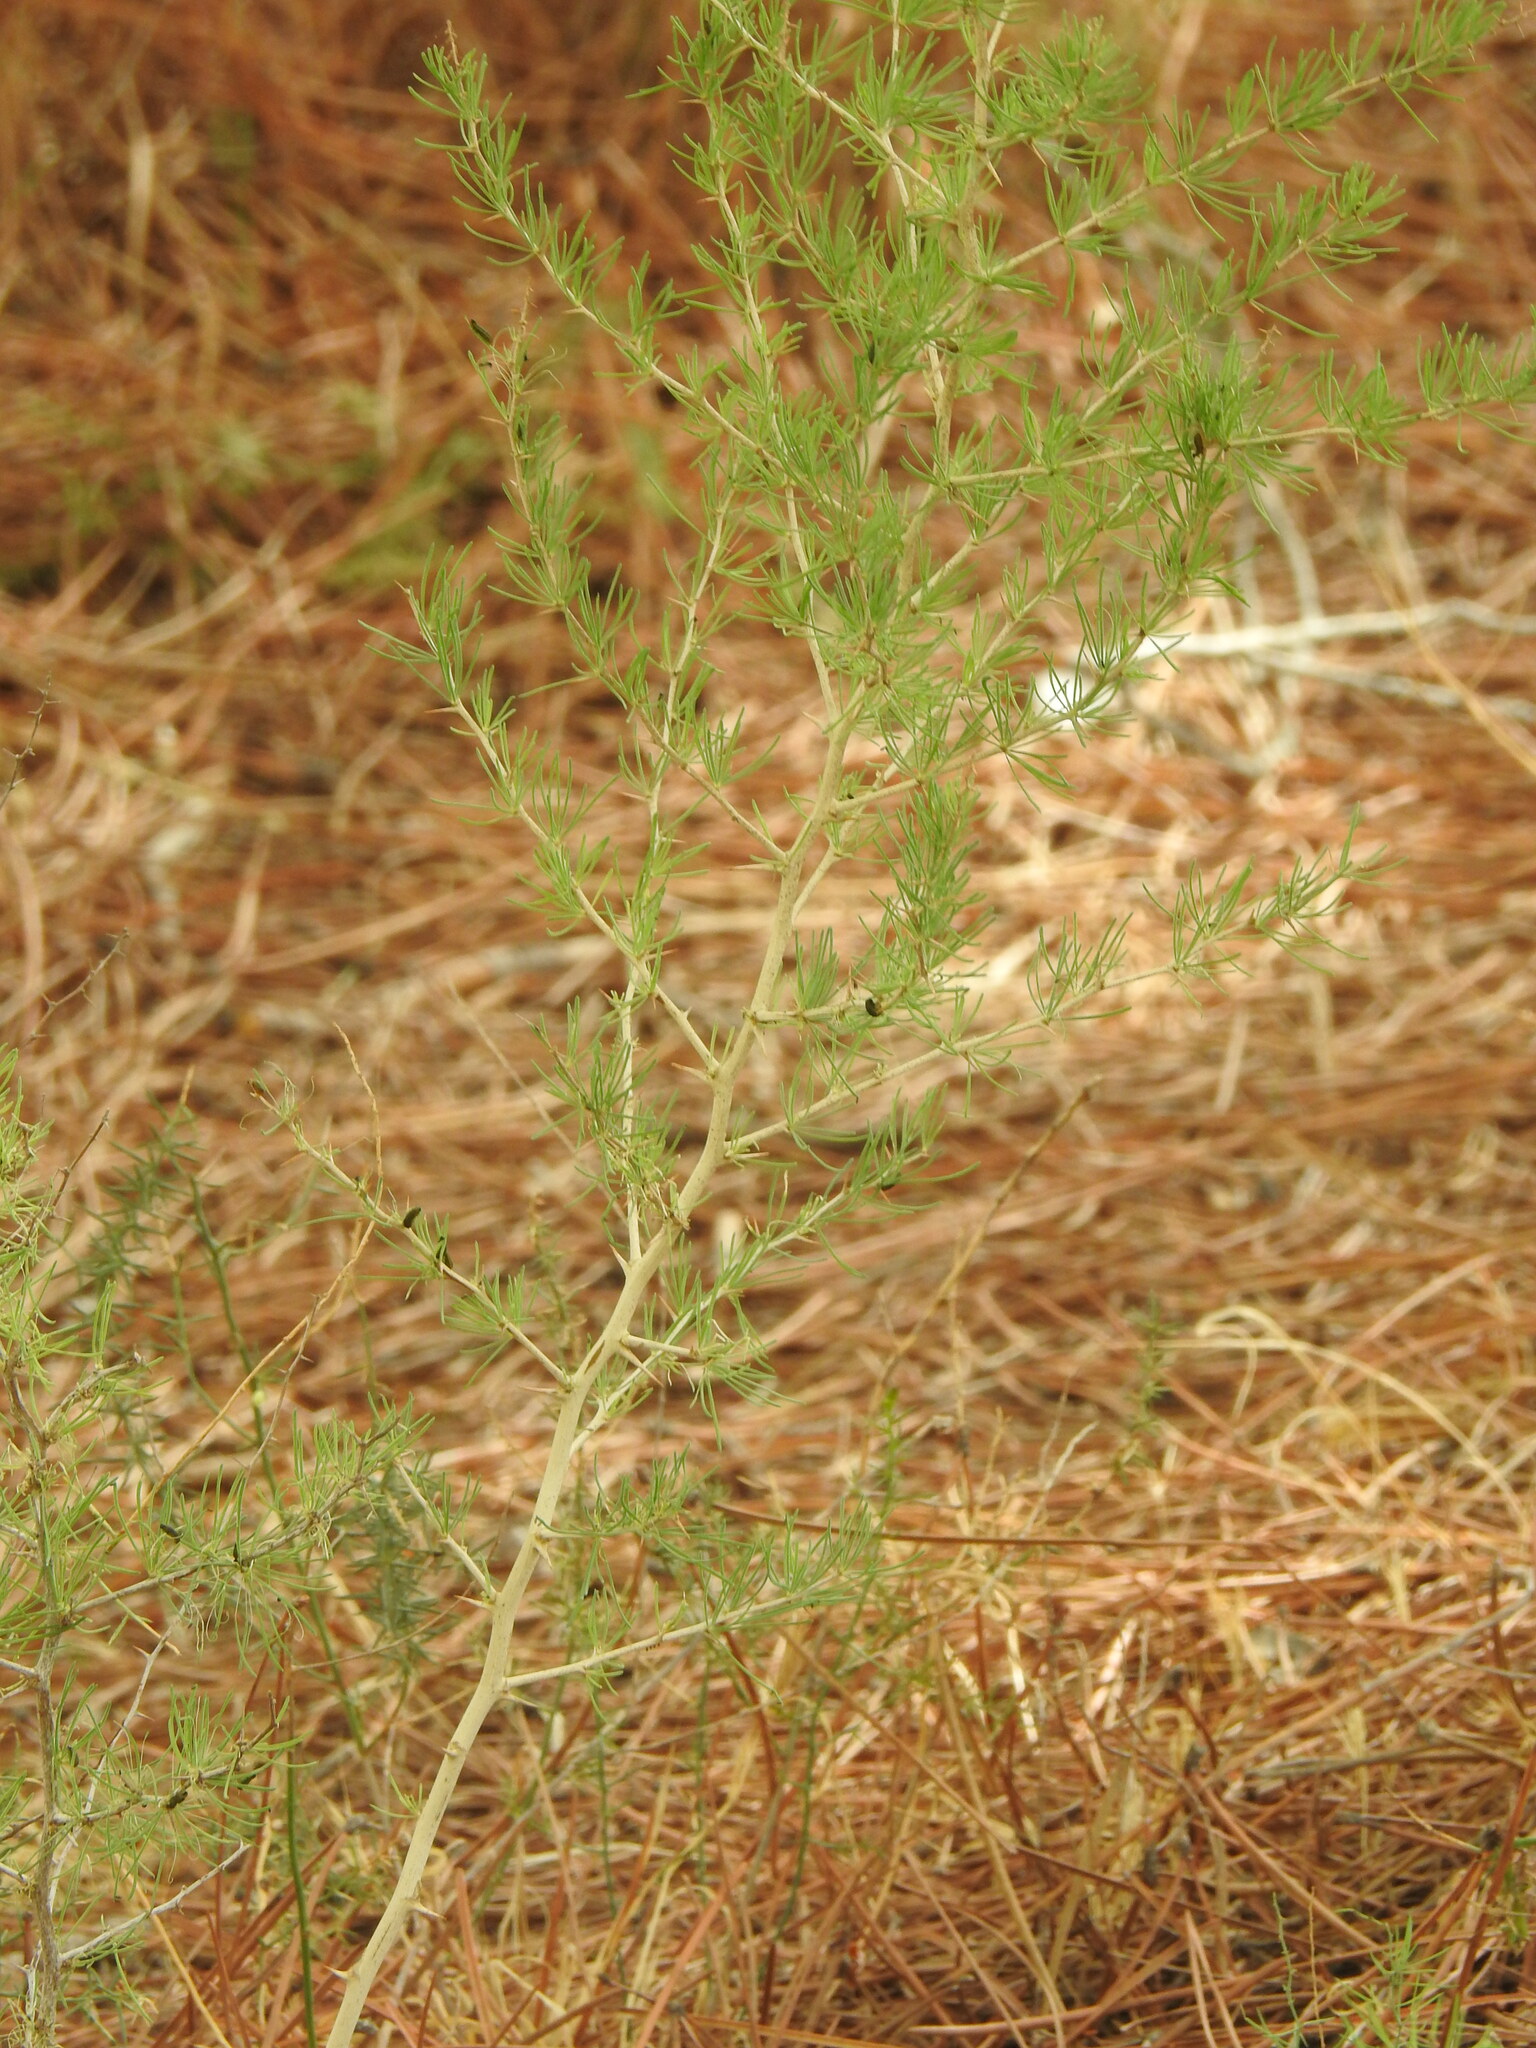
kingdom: Plantae
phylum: Tracheophyta
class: Liliopsida
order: Asparagales
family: Asparagaceae
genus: Asparagus
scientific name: Asparagus albus
